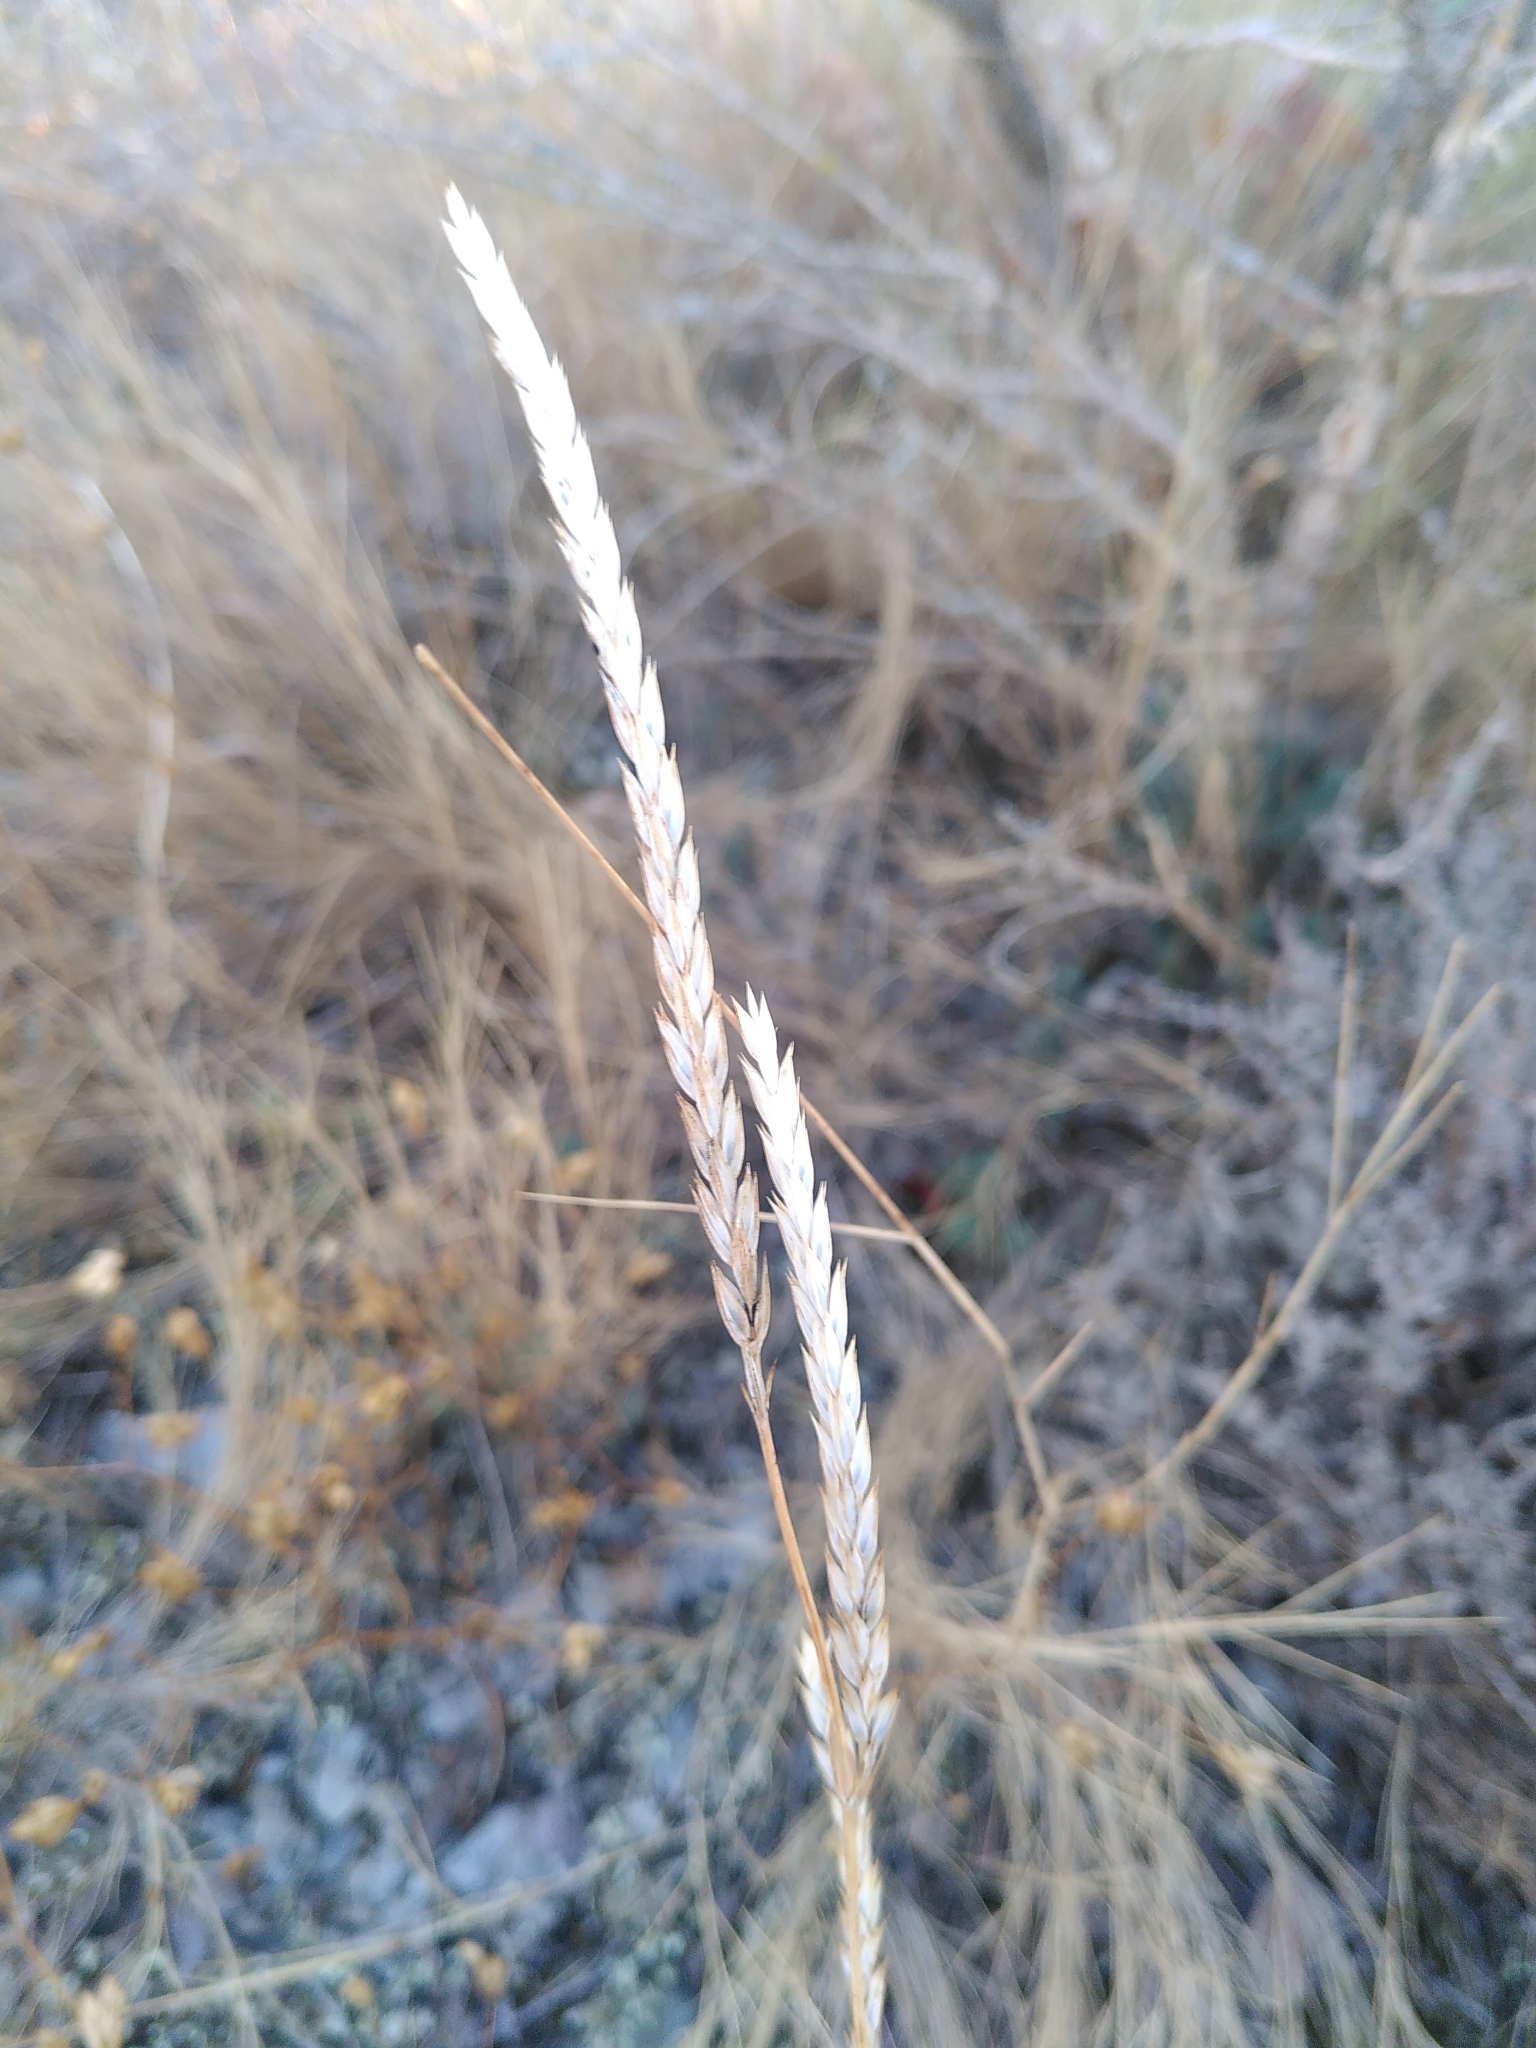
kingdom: Plantae
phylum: Tracheophyta
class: Magnoliopsida
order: Gentianales
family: Rubiaceae
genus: Crucianella
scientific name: Crucianella angustifolia
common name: Narrowleaf crucianella
